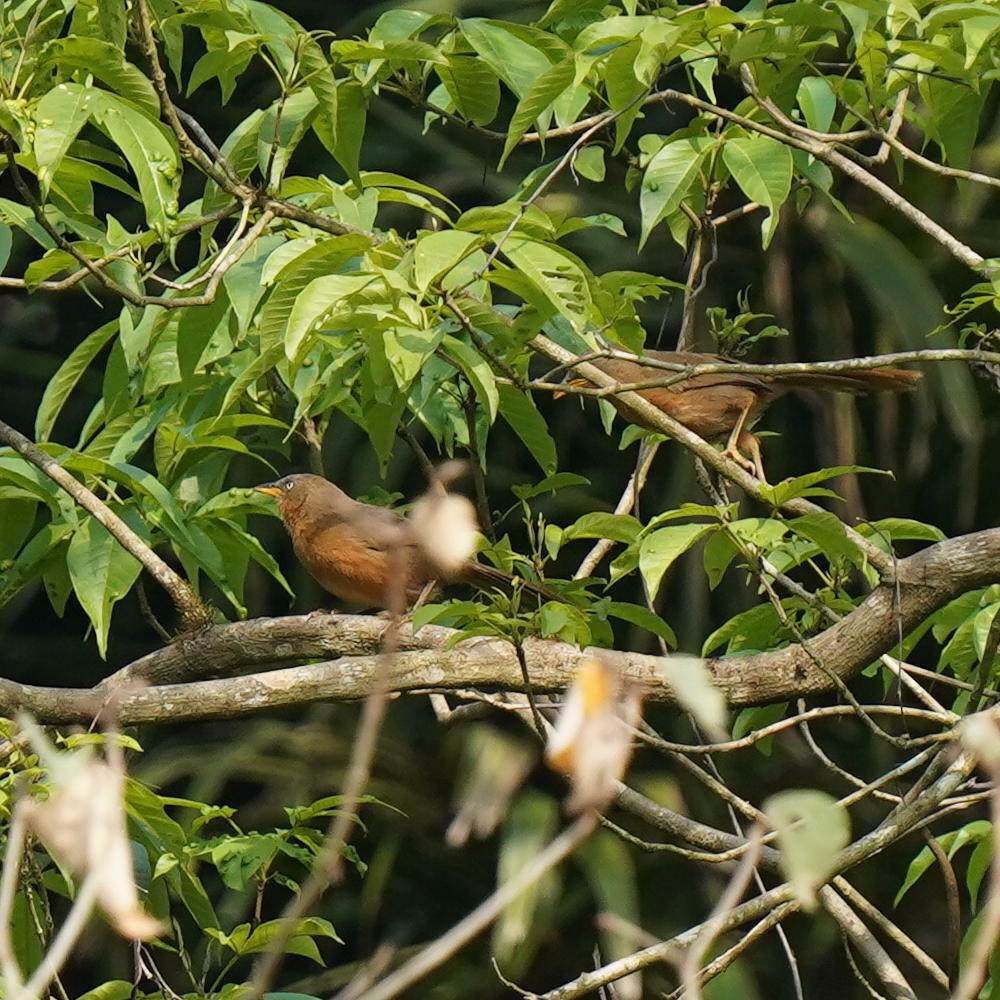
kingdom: Animalia
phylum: Chordata
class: Aves
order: Passeriformes
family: Leiothrichidae
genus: Turdoides
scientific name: Turdoides subrufa
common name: Rufous babbler
